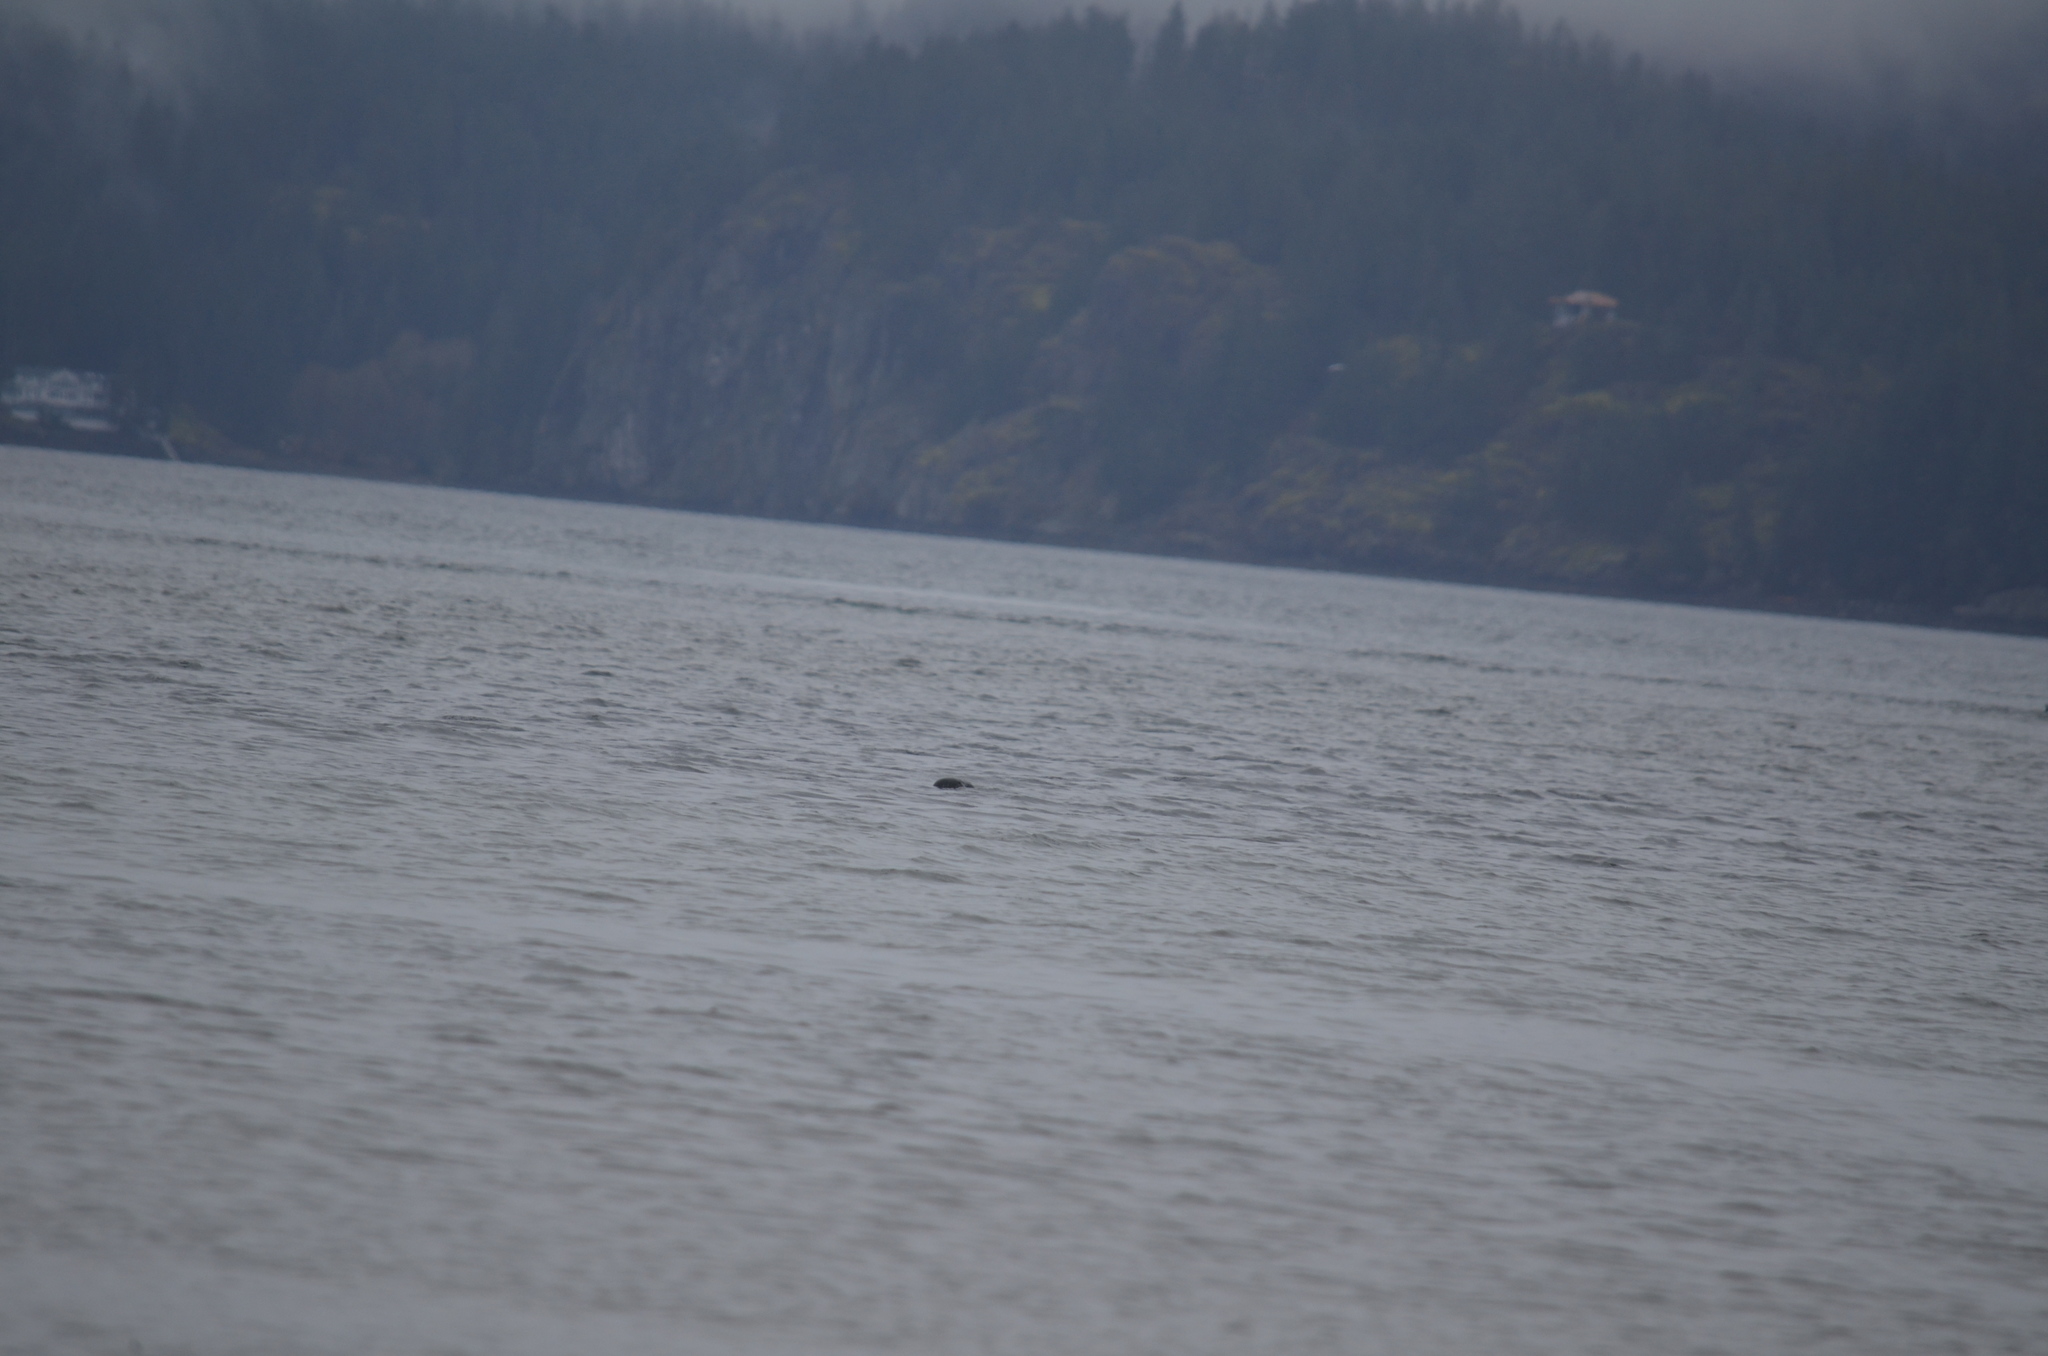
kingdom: Animalia
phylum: Chordata
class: Mammalia
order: Carnivora
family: Phocidae
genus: Phoca
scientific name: Phoca vitulina
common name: Harbor seal
